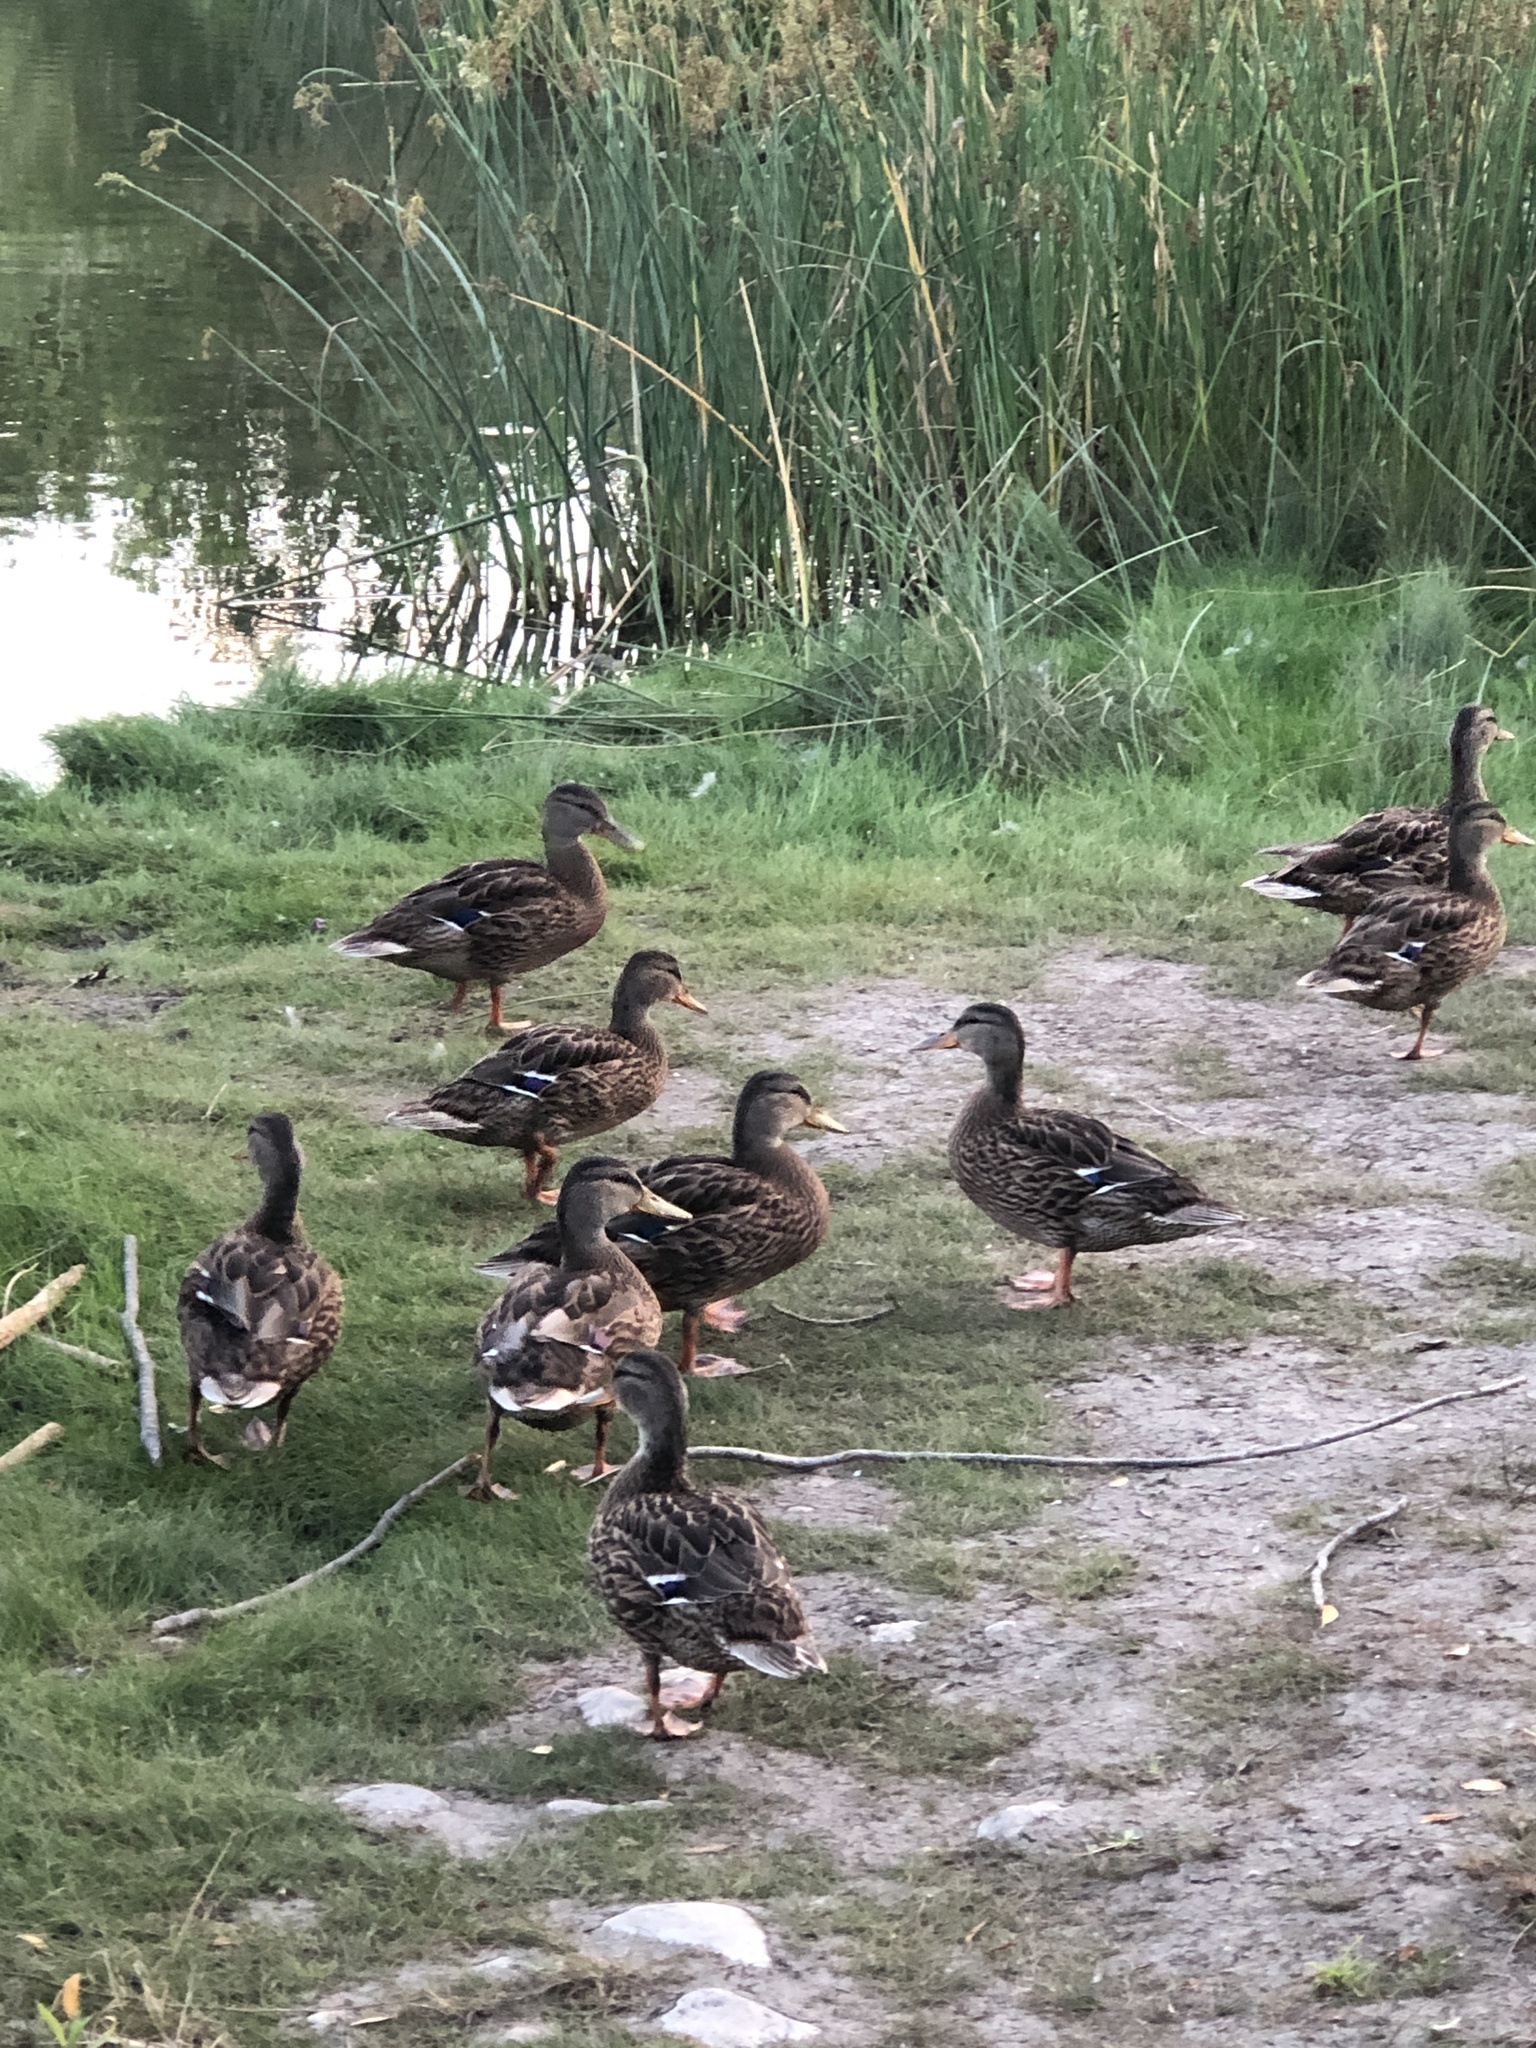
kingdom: Animalia
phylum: Chordata
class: Aves
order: Anseriformes
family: Anatidae
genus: Anas
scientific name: Anas platyrhynchos
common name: Mallard
